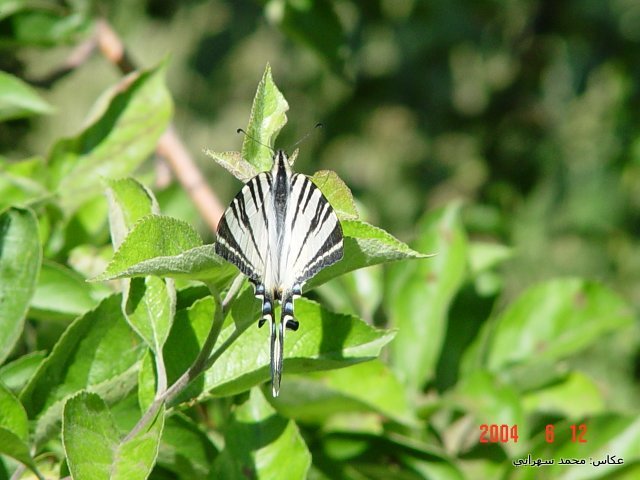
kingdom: Animalia
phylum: Arthropoda
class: Insecta
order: Lepidoptera
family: Papilionidae
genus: Iphiclides
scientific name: Iphiclides podalirius
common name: Scarce swallowtail
